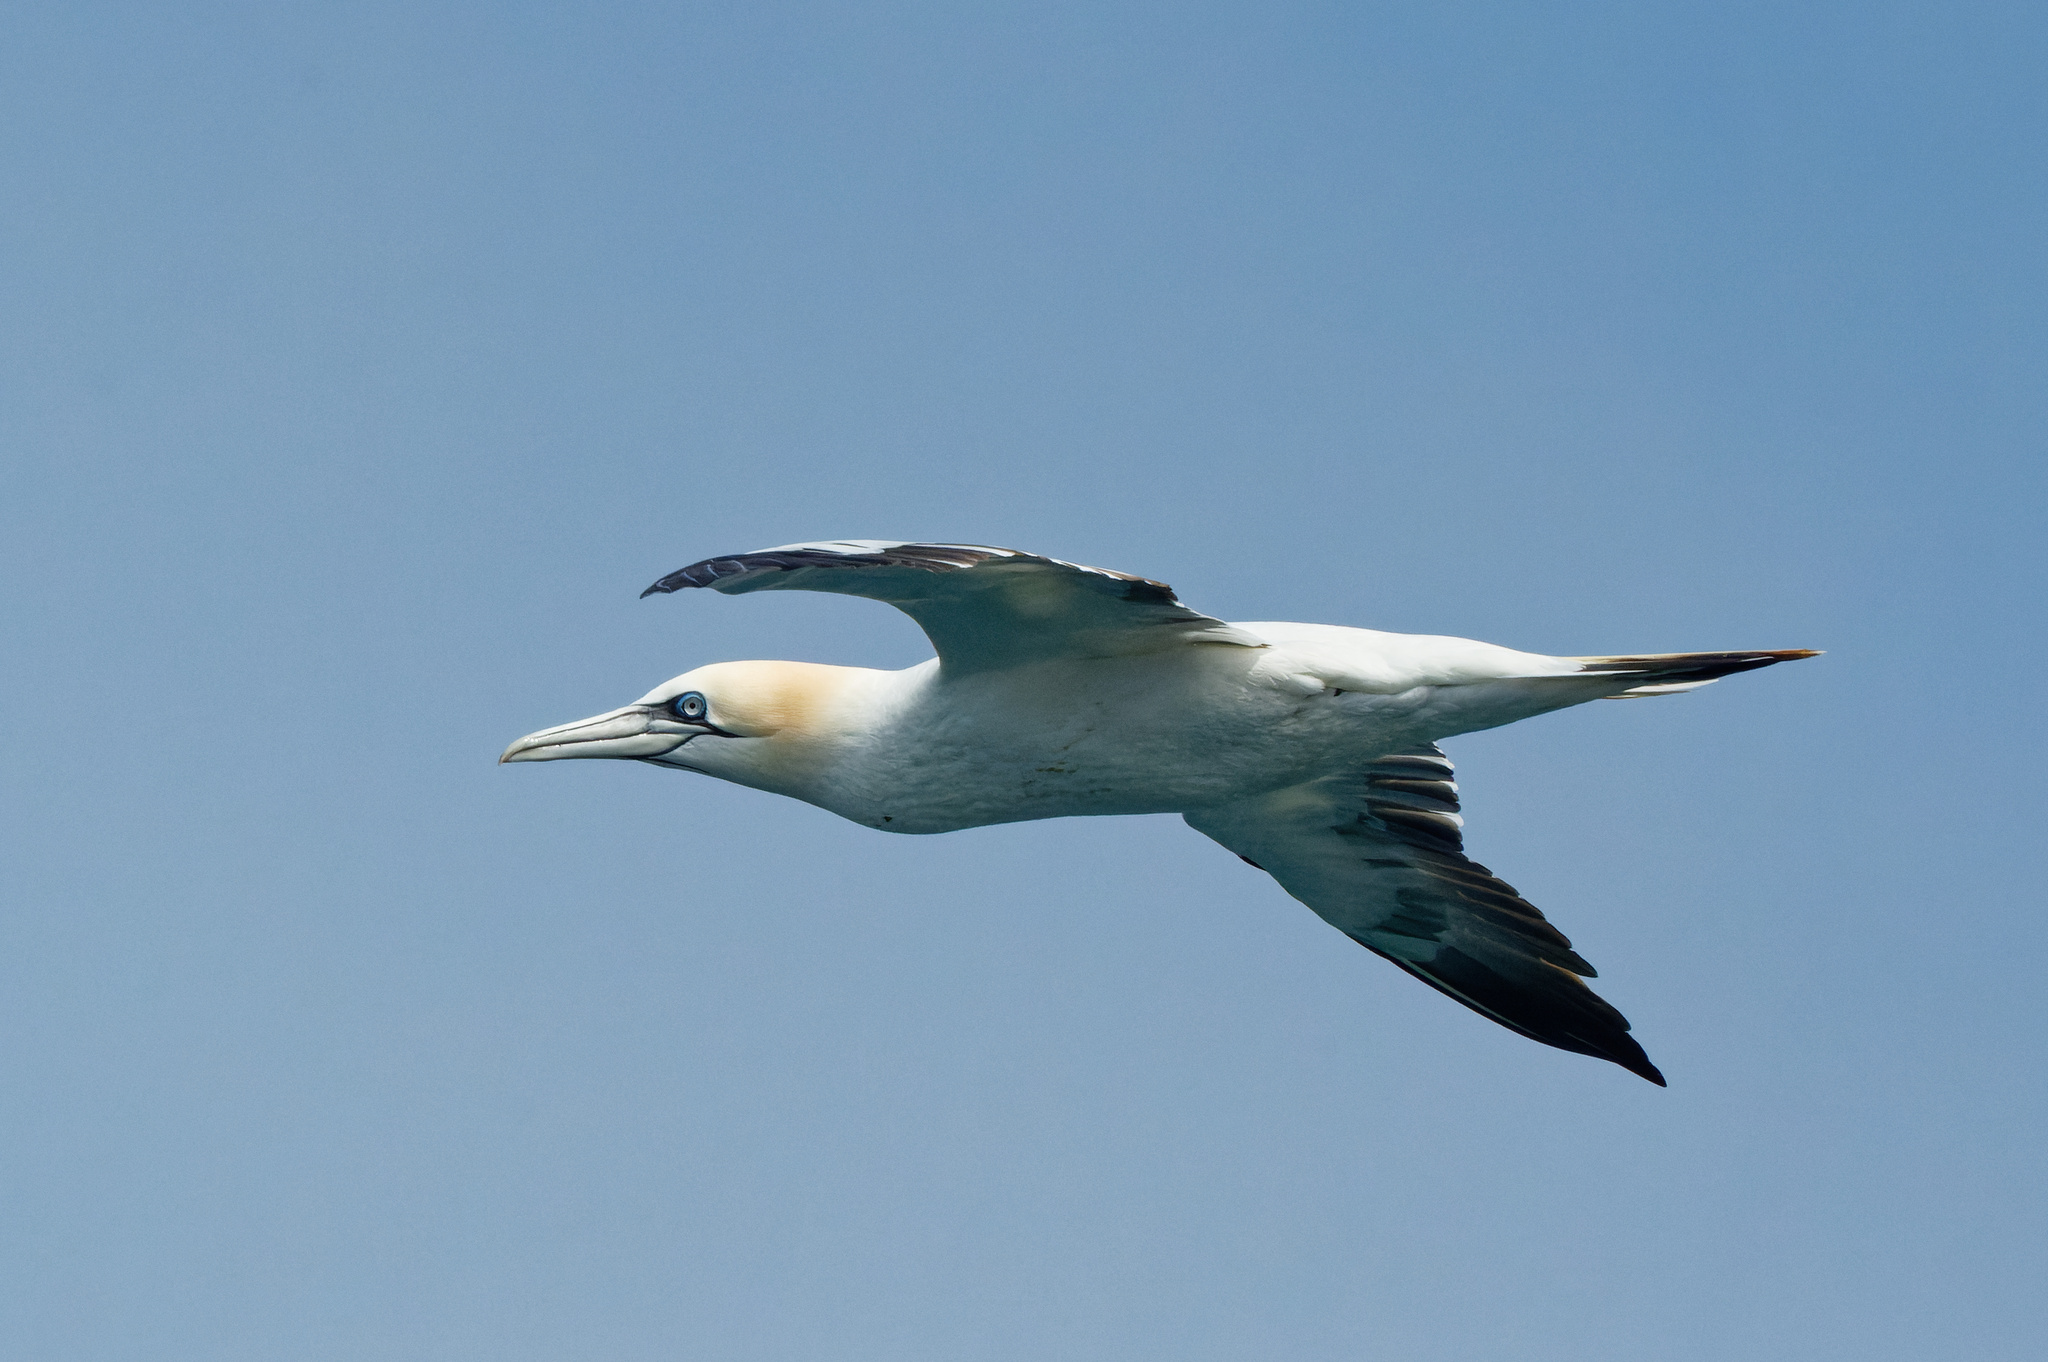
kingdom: Animalia
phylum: Chordata
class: Aves
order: Suliformes
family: Sulidae
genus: Morus
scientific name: Morus bassanus
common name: Northern gannet
